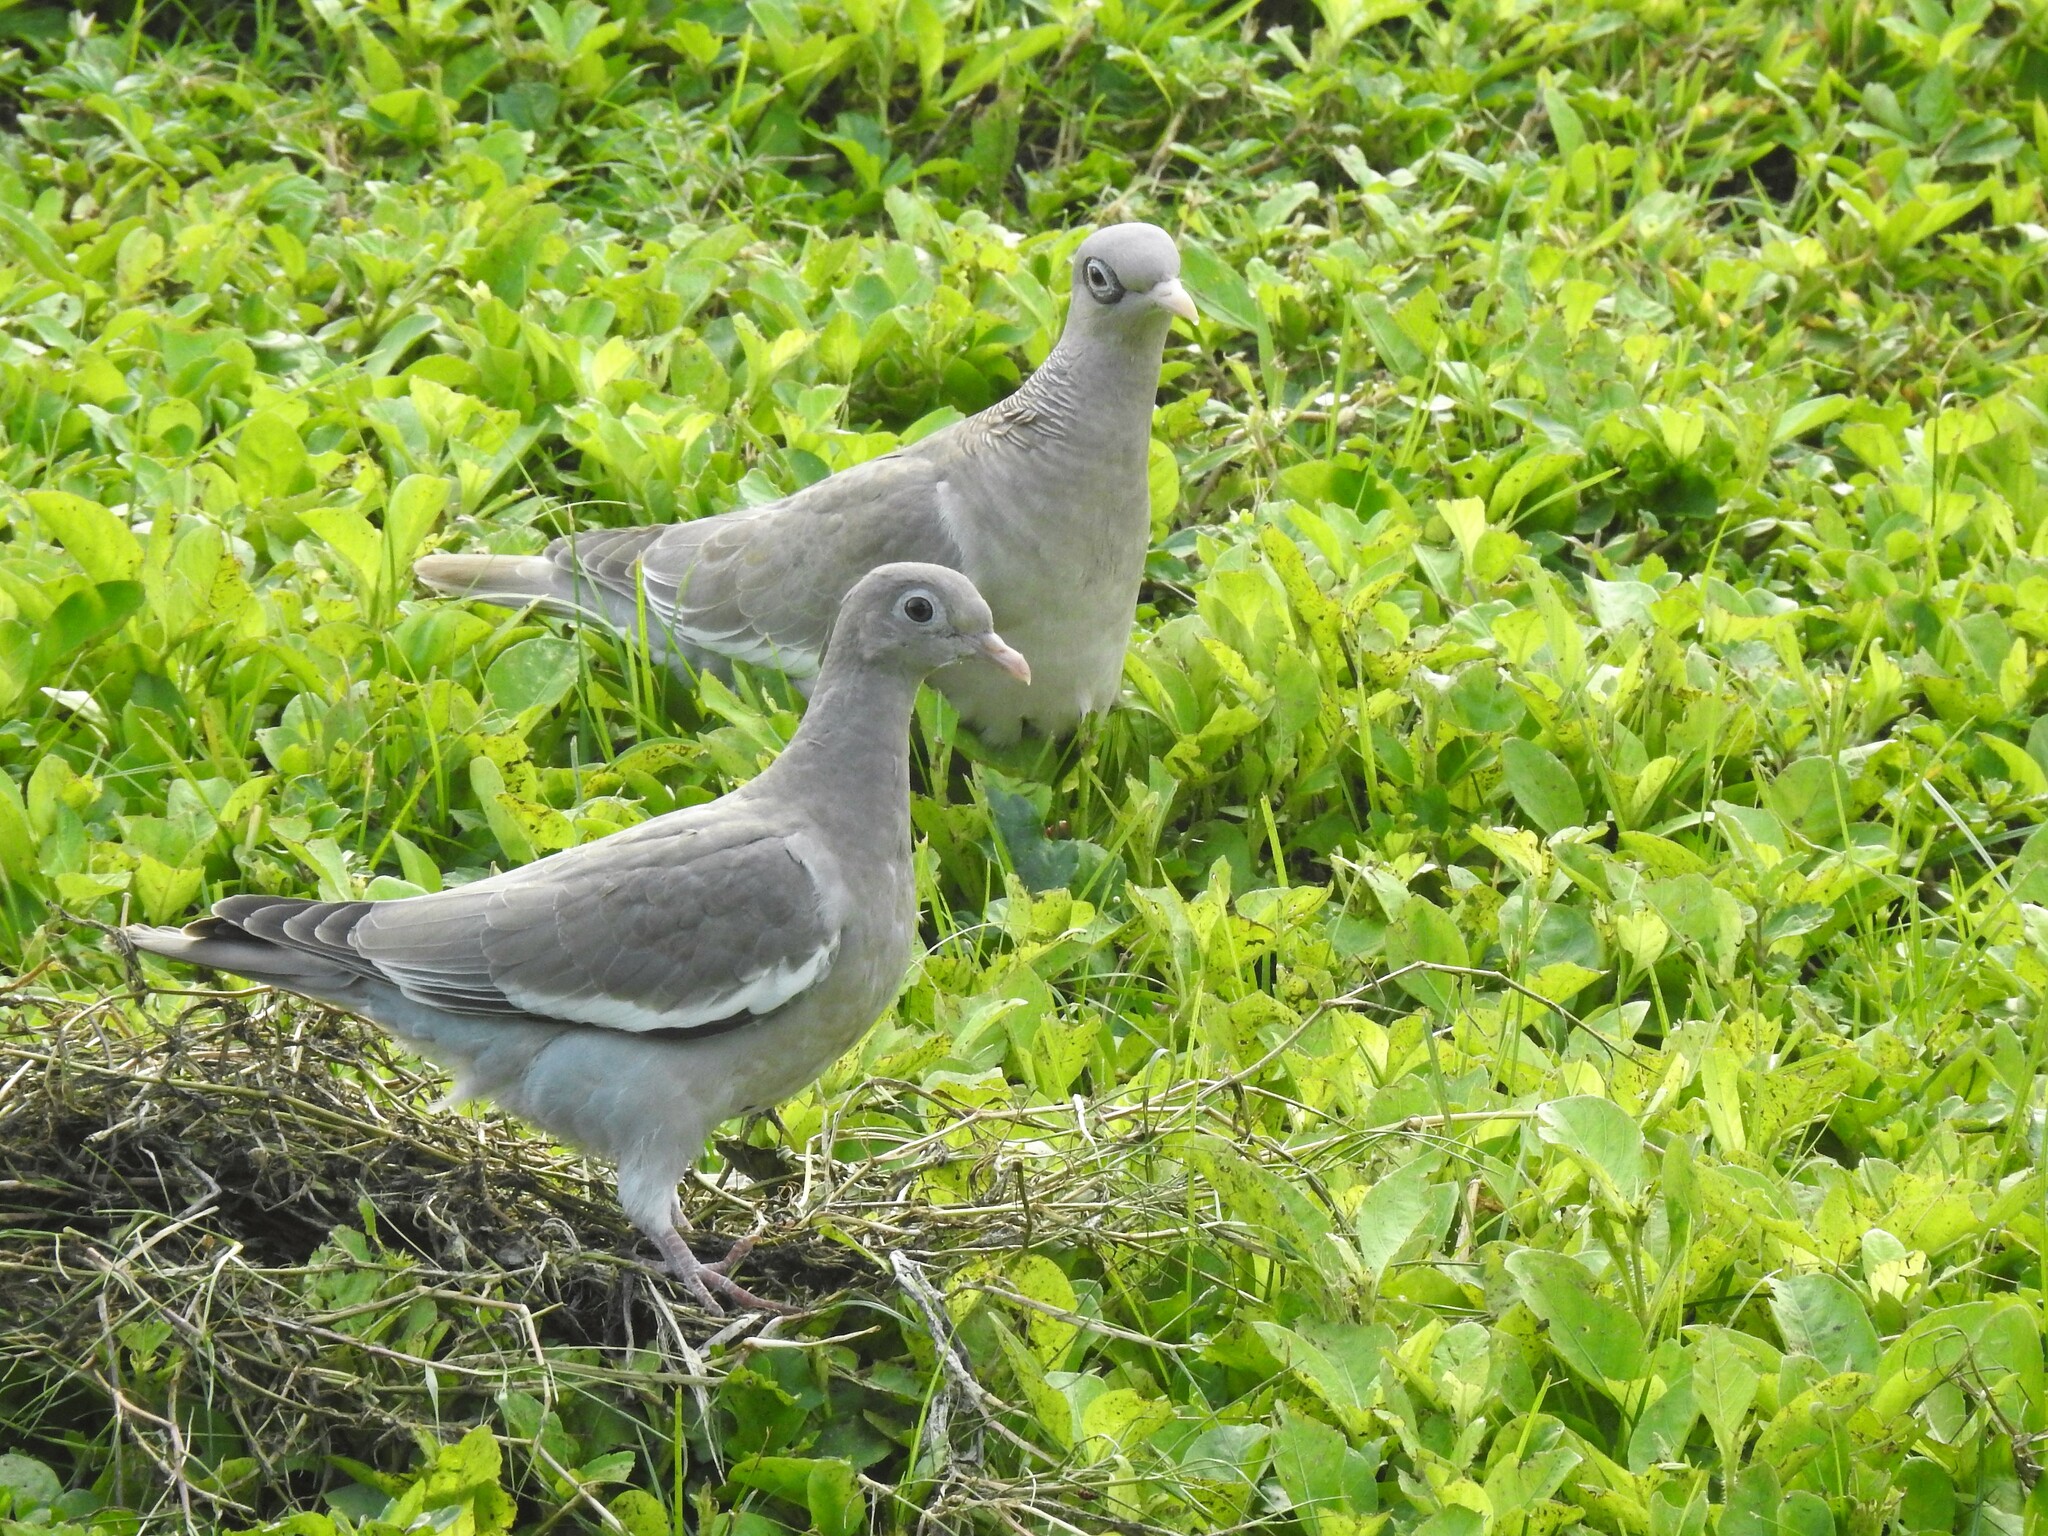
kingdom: Animalia
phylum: Chordata
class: Aves
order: Columbiformes
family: Columbidae
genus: Patagioenas
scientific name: Patagioenas corensis
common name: Bare-eyed pigeon
